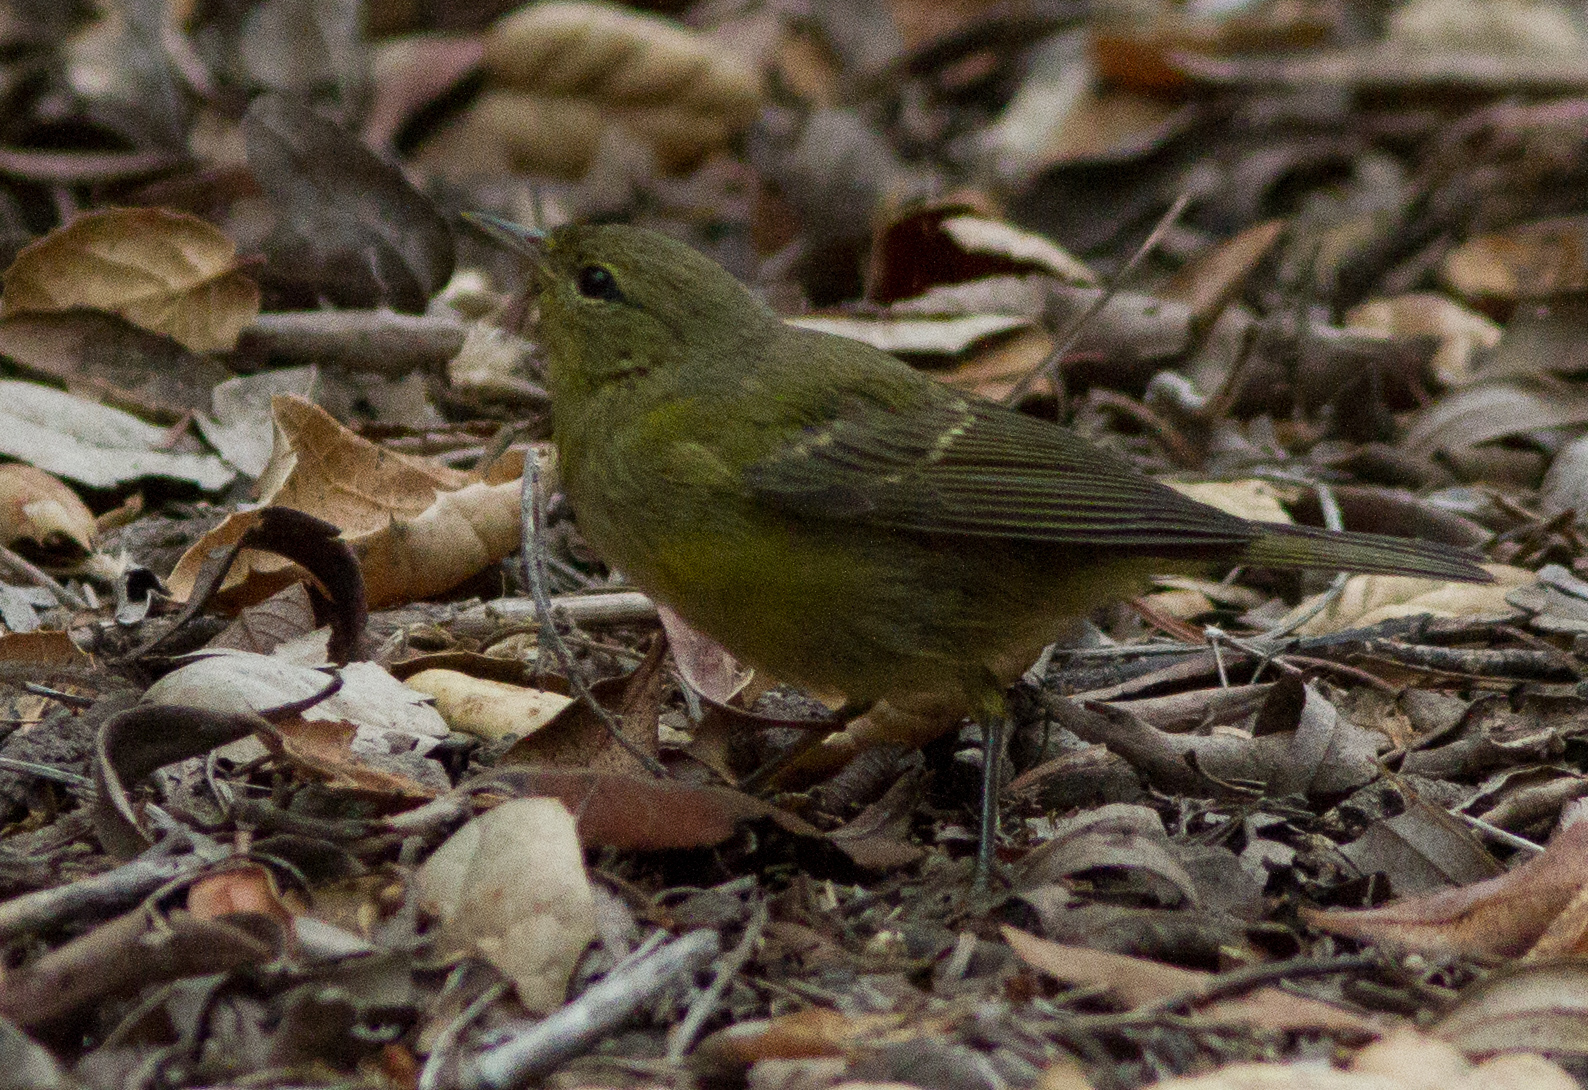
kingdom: Animalia
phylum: Chordata
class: Aves
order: Passeriformes
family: Parulidae
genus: Leiothlypis
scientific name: Leiothlypis celata
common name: Orange-crowned warbler
